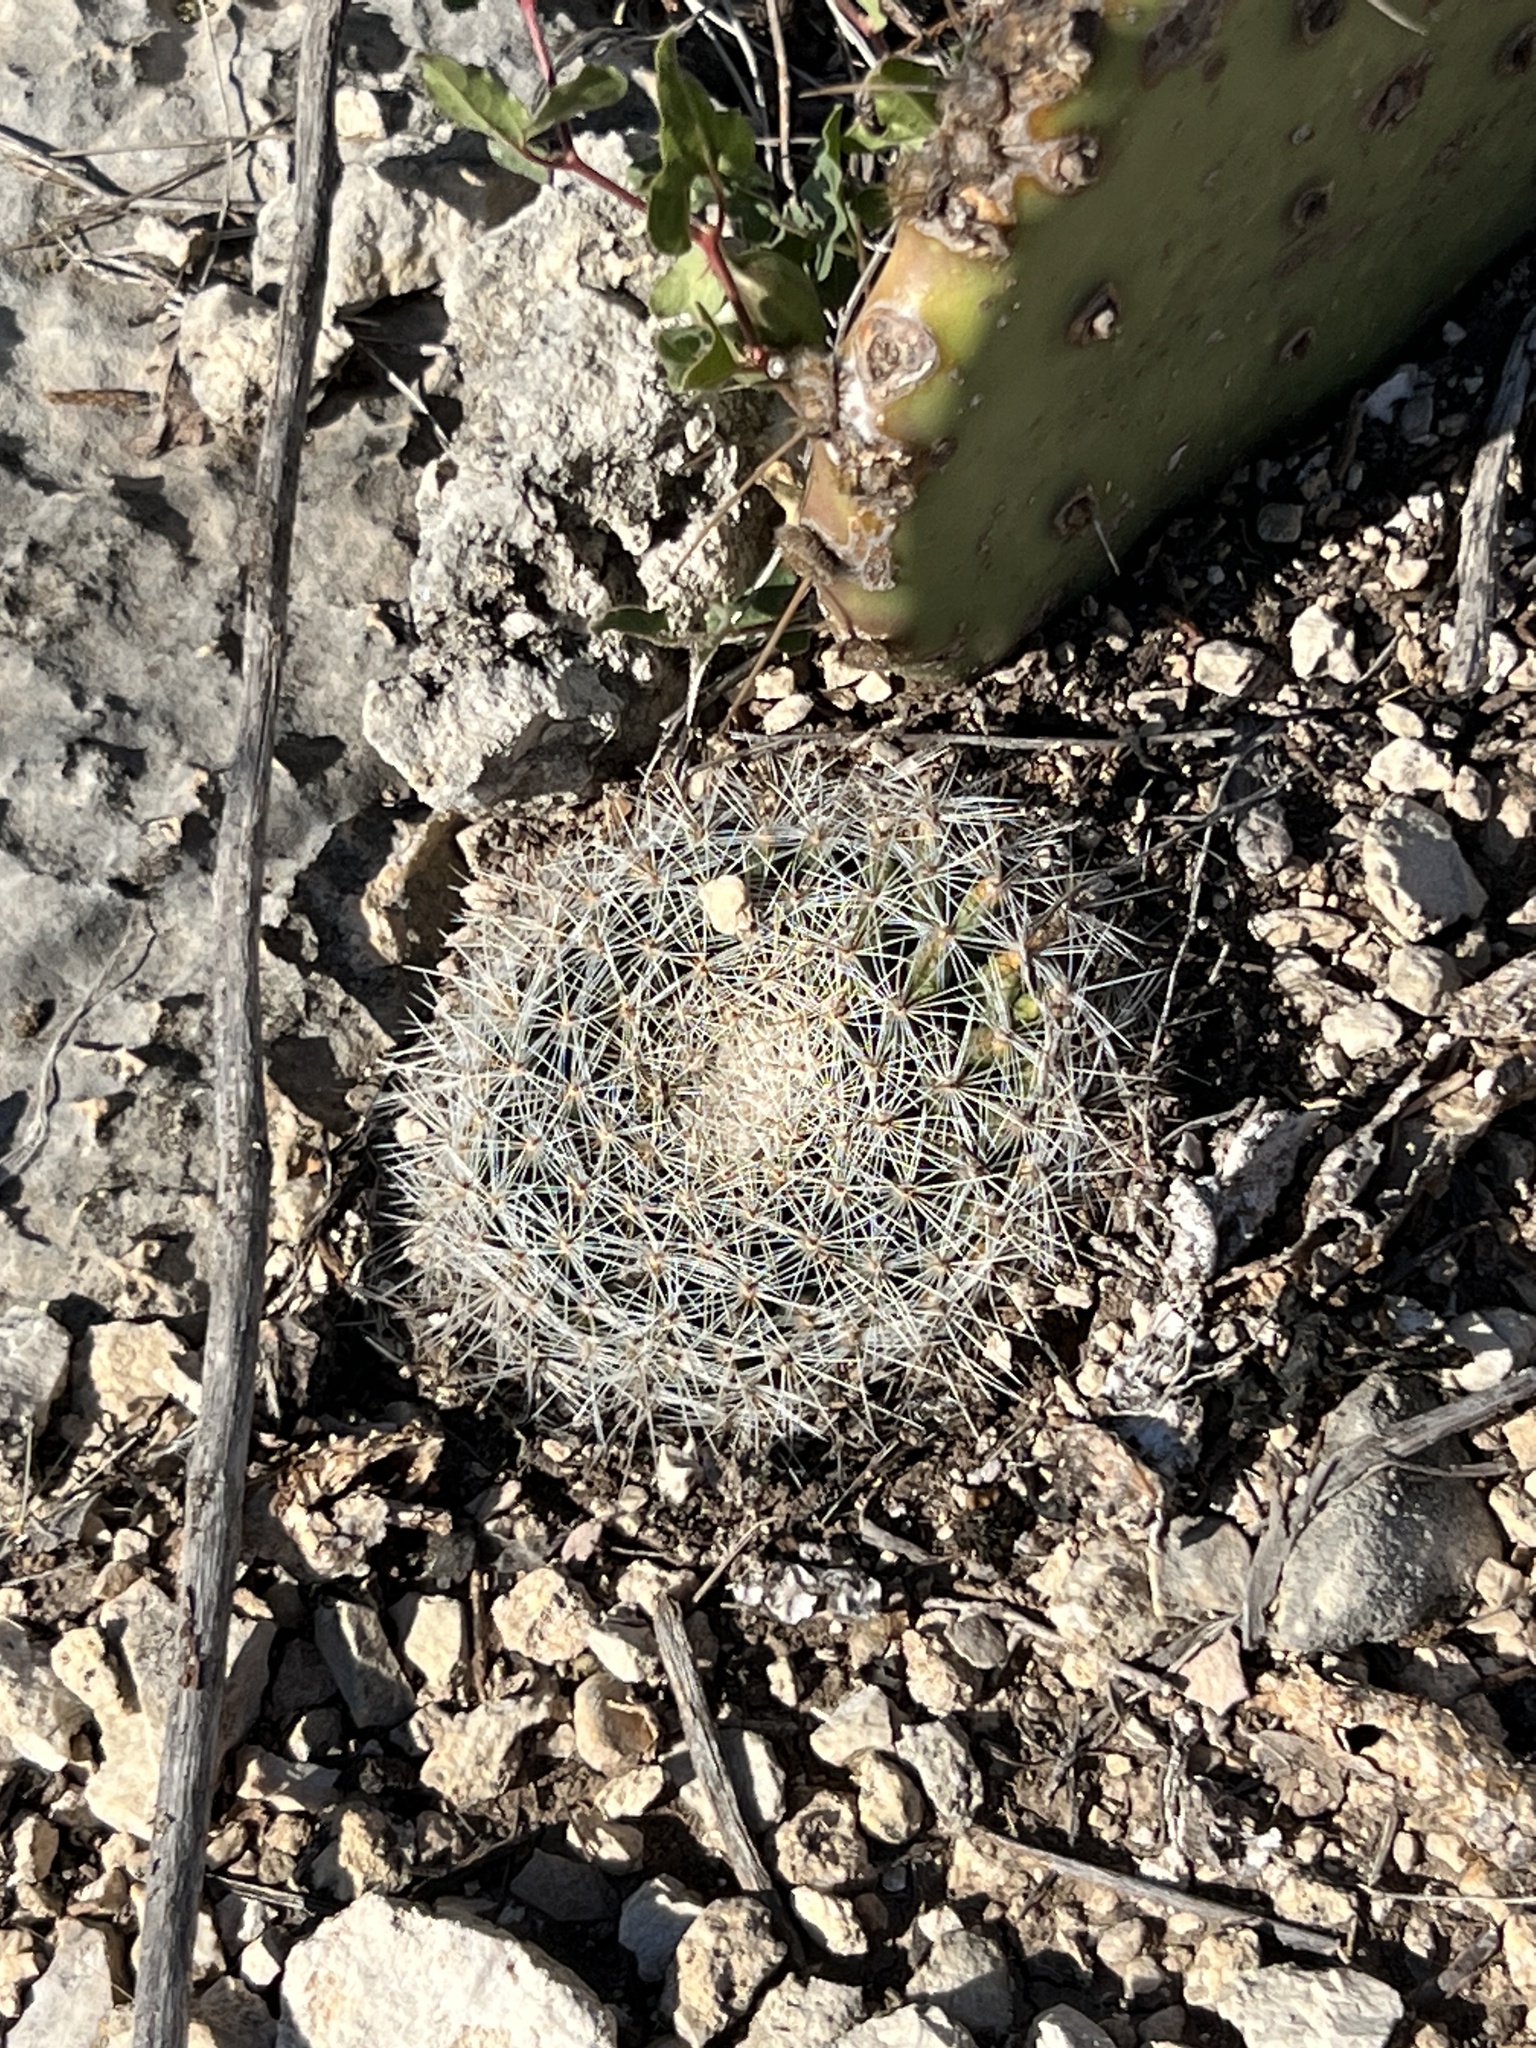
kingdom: Plantae
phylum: Tracheophyta
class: Magnoliopsida
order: Caryophyllales
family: Cactaceae
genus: Mammillaria
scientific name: Mammillaria heyderi
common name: Little nipple cactus
